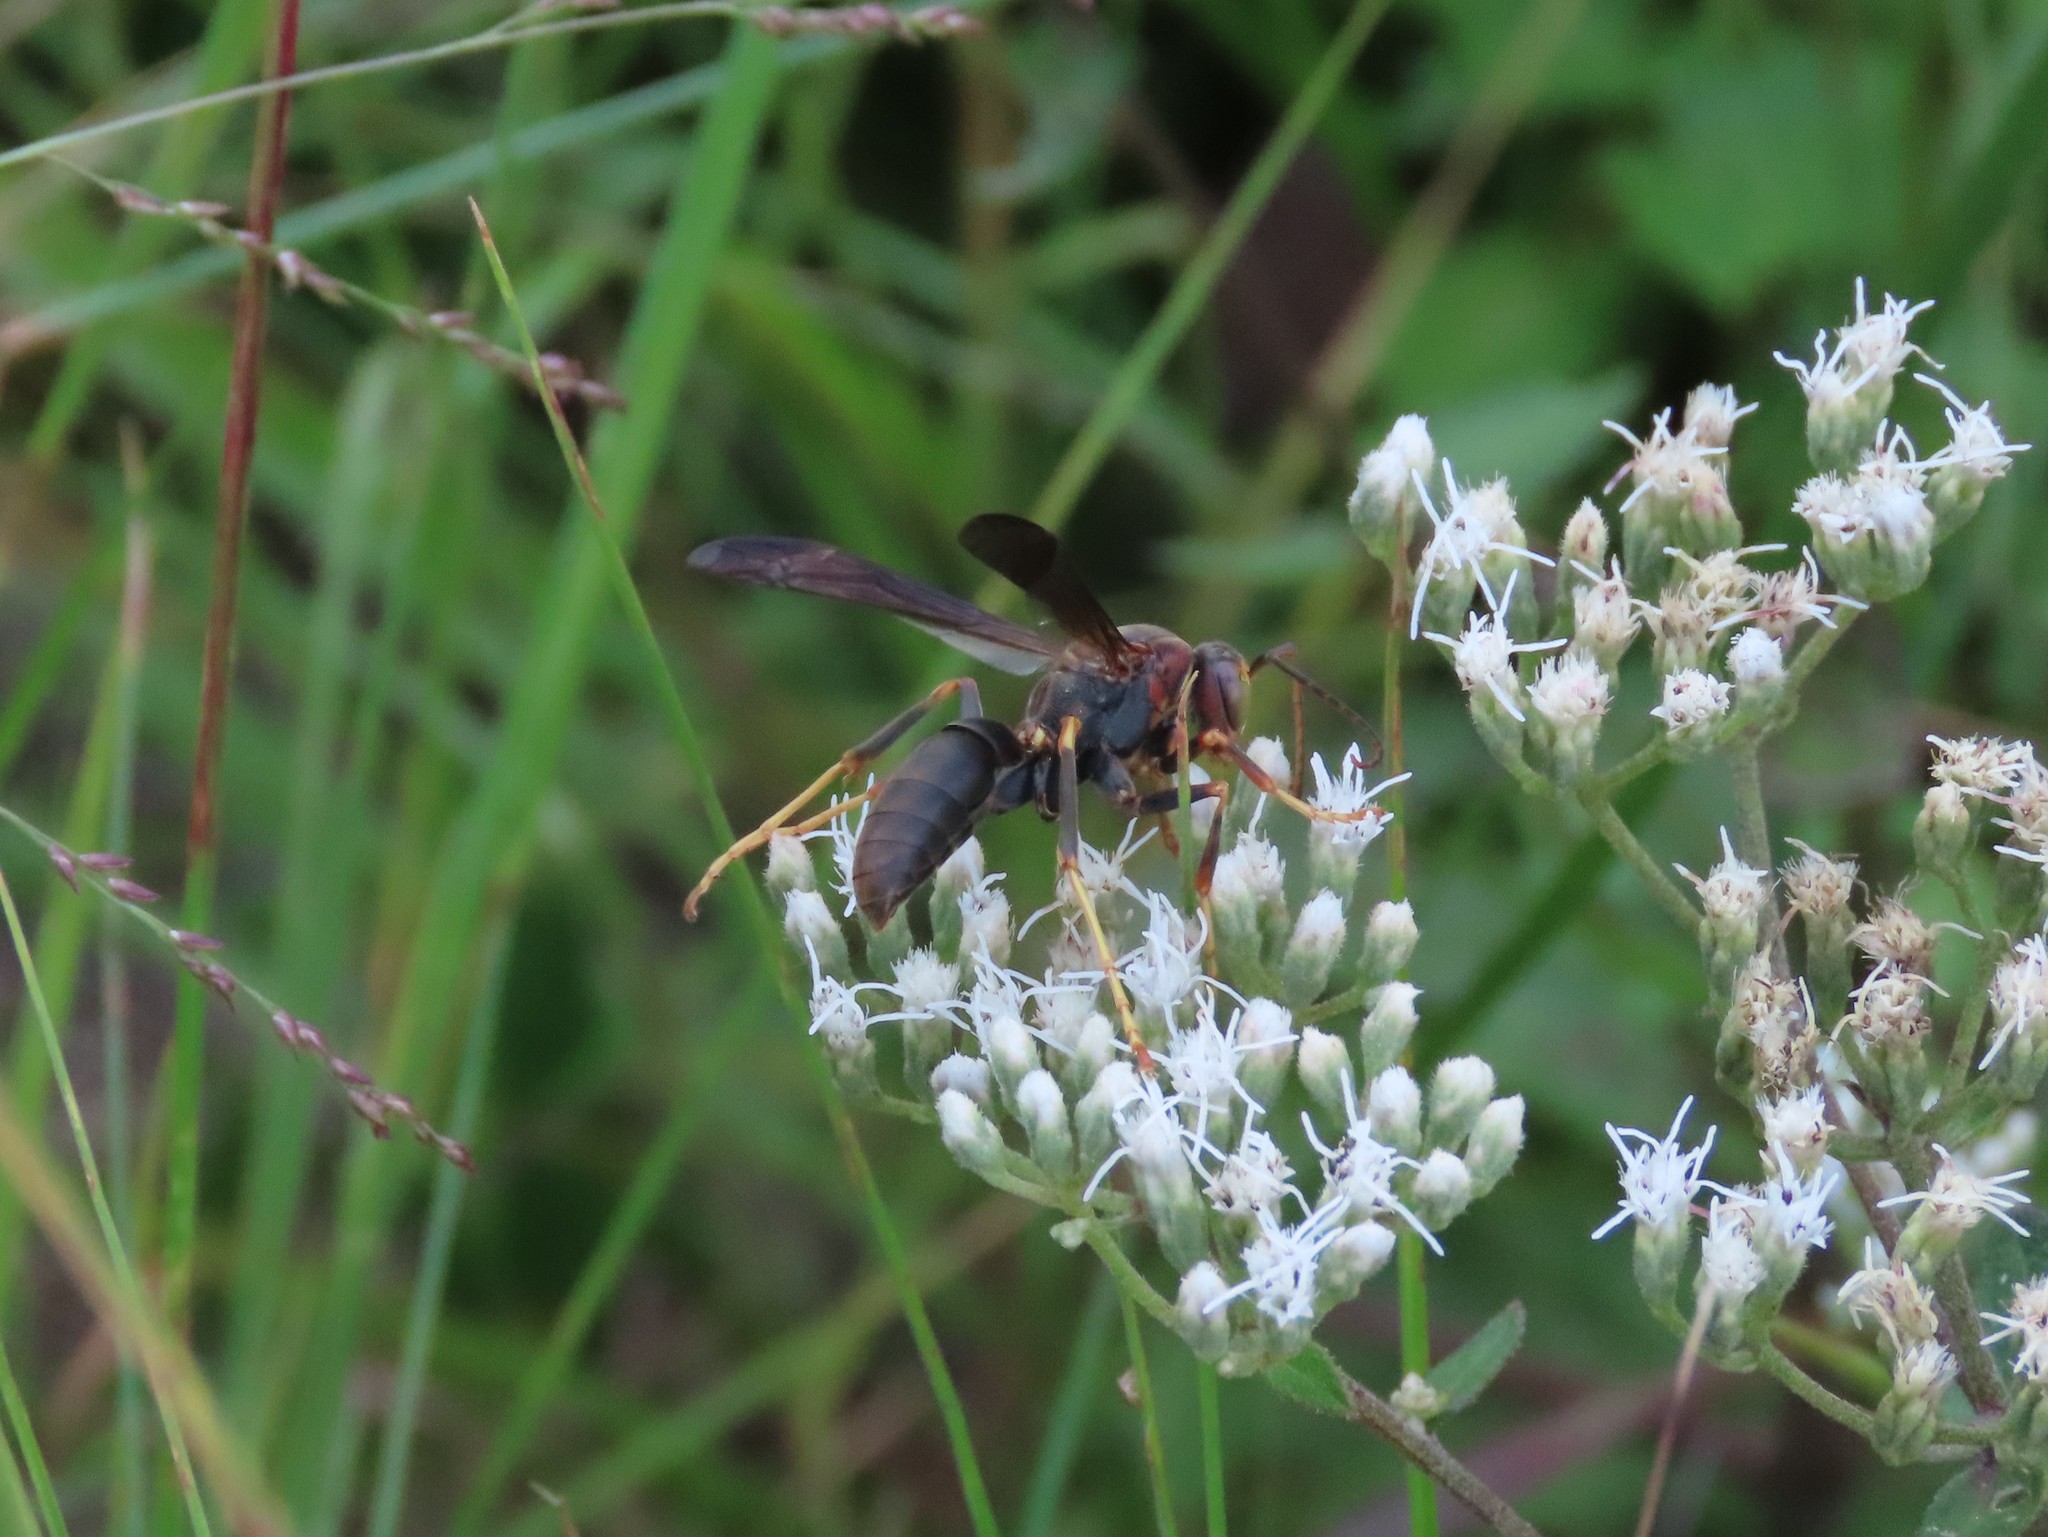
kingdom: Animalia
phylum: Arthropoda
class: Insecta
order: Hymenoptera
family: Eumenidae
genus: Polistes
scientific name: Polistes metricus
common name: Metric paper wasp
